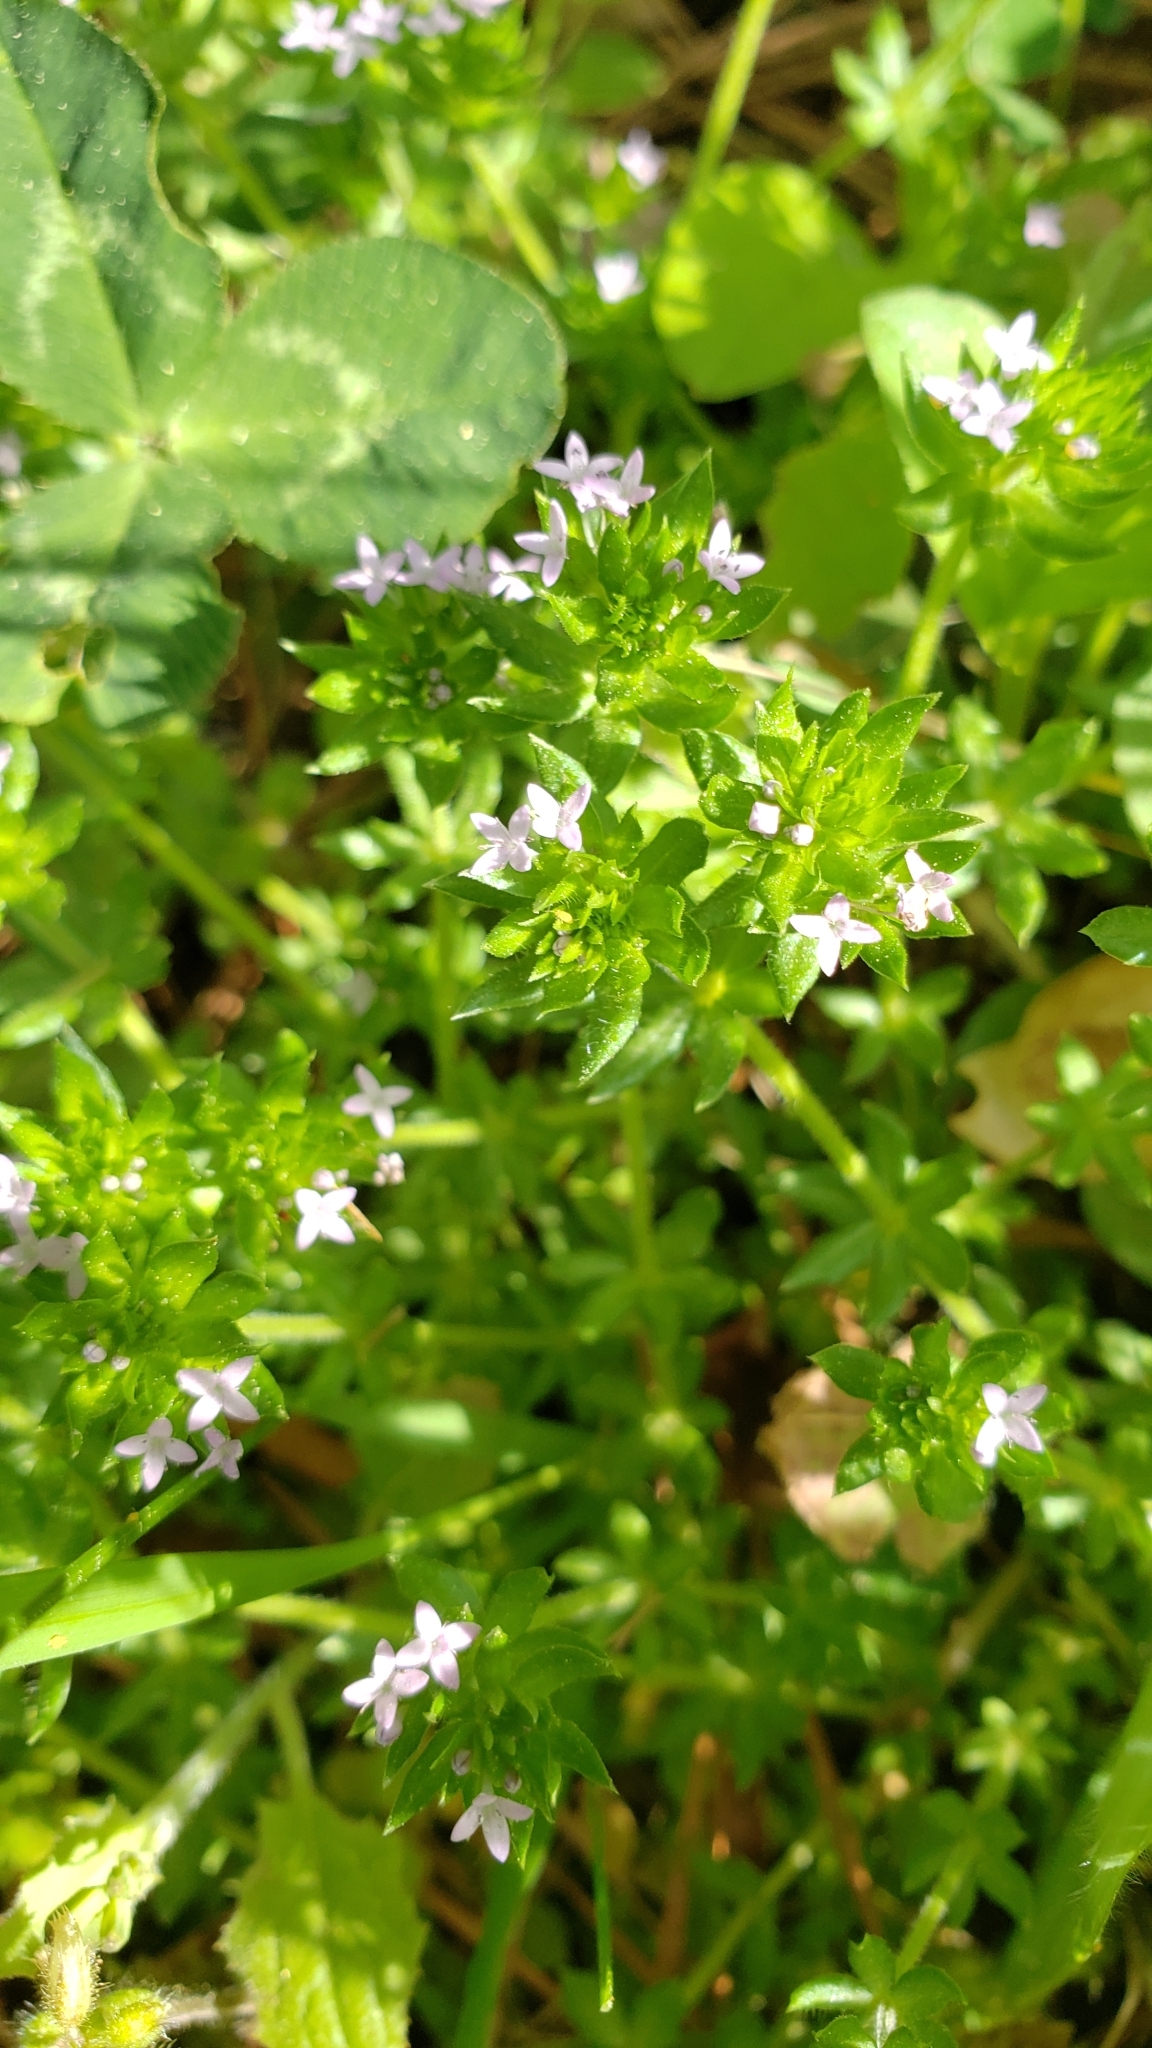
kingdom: Plantae
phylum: Tracheophyta
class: Magnoliopsida
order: Gentianales
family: Rubiaceae
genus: Sherardia
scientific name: Sherardia arvensis
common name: Field madder
